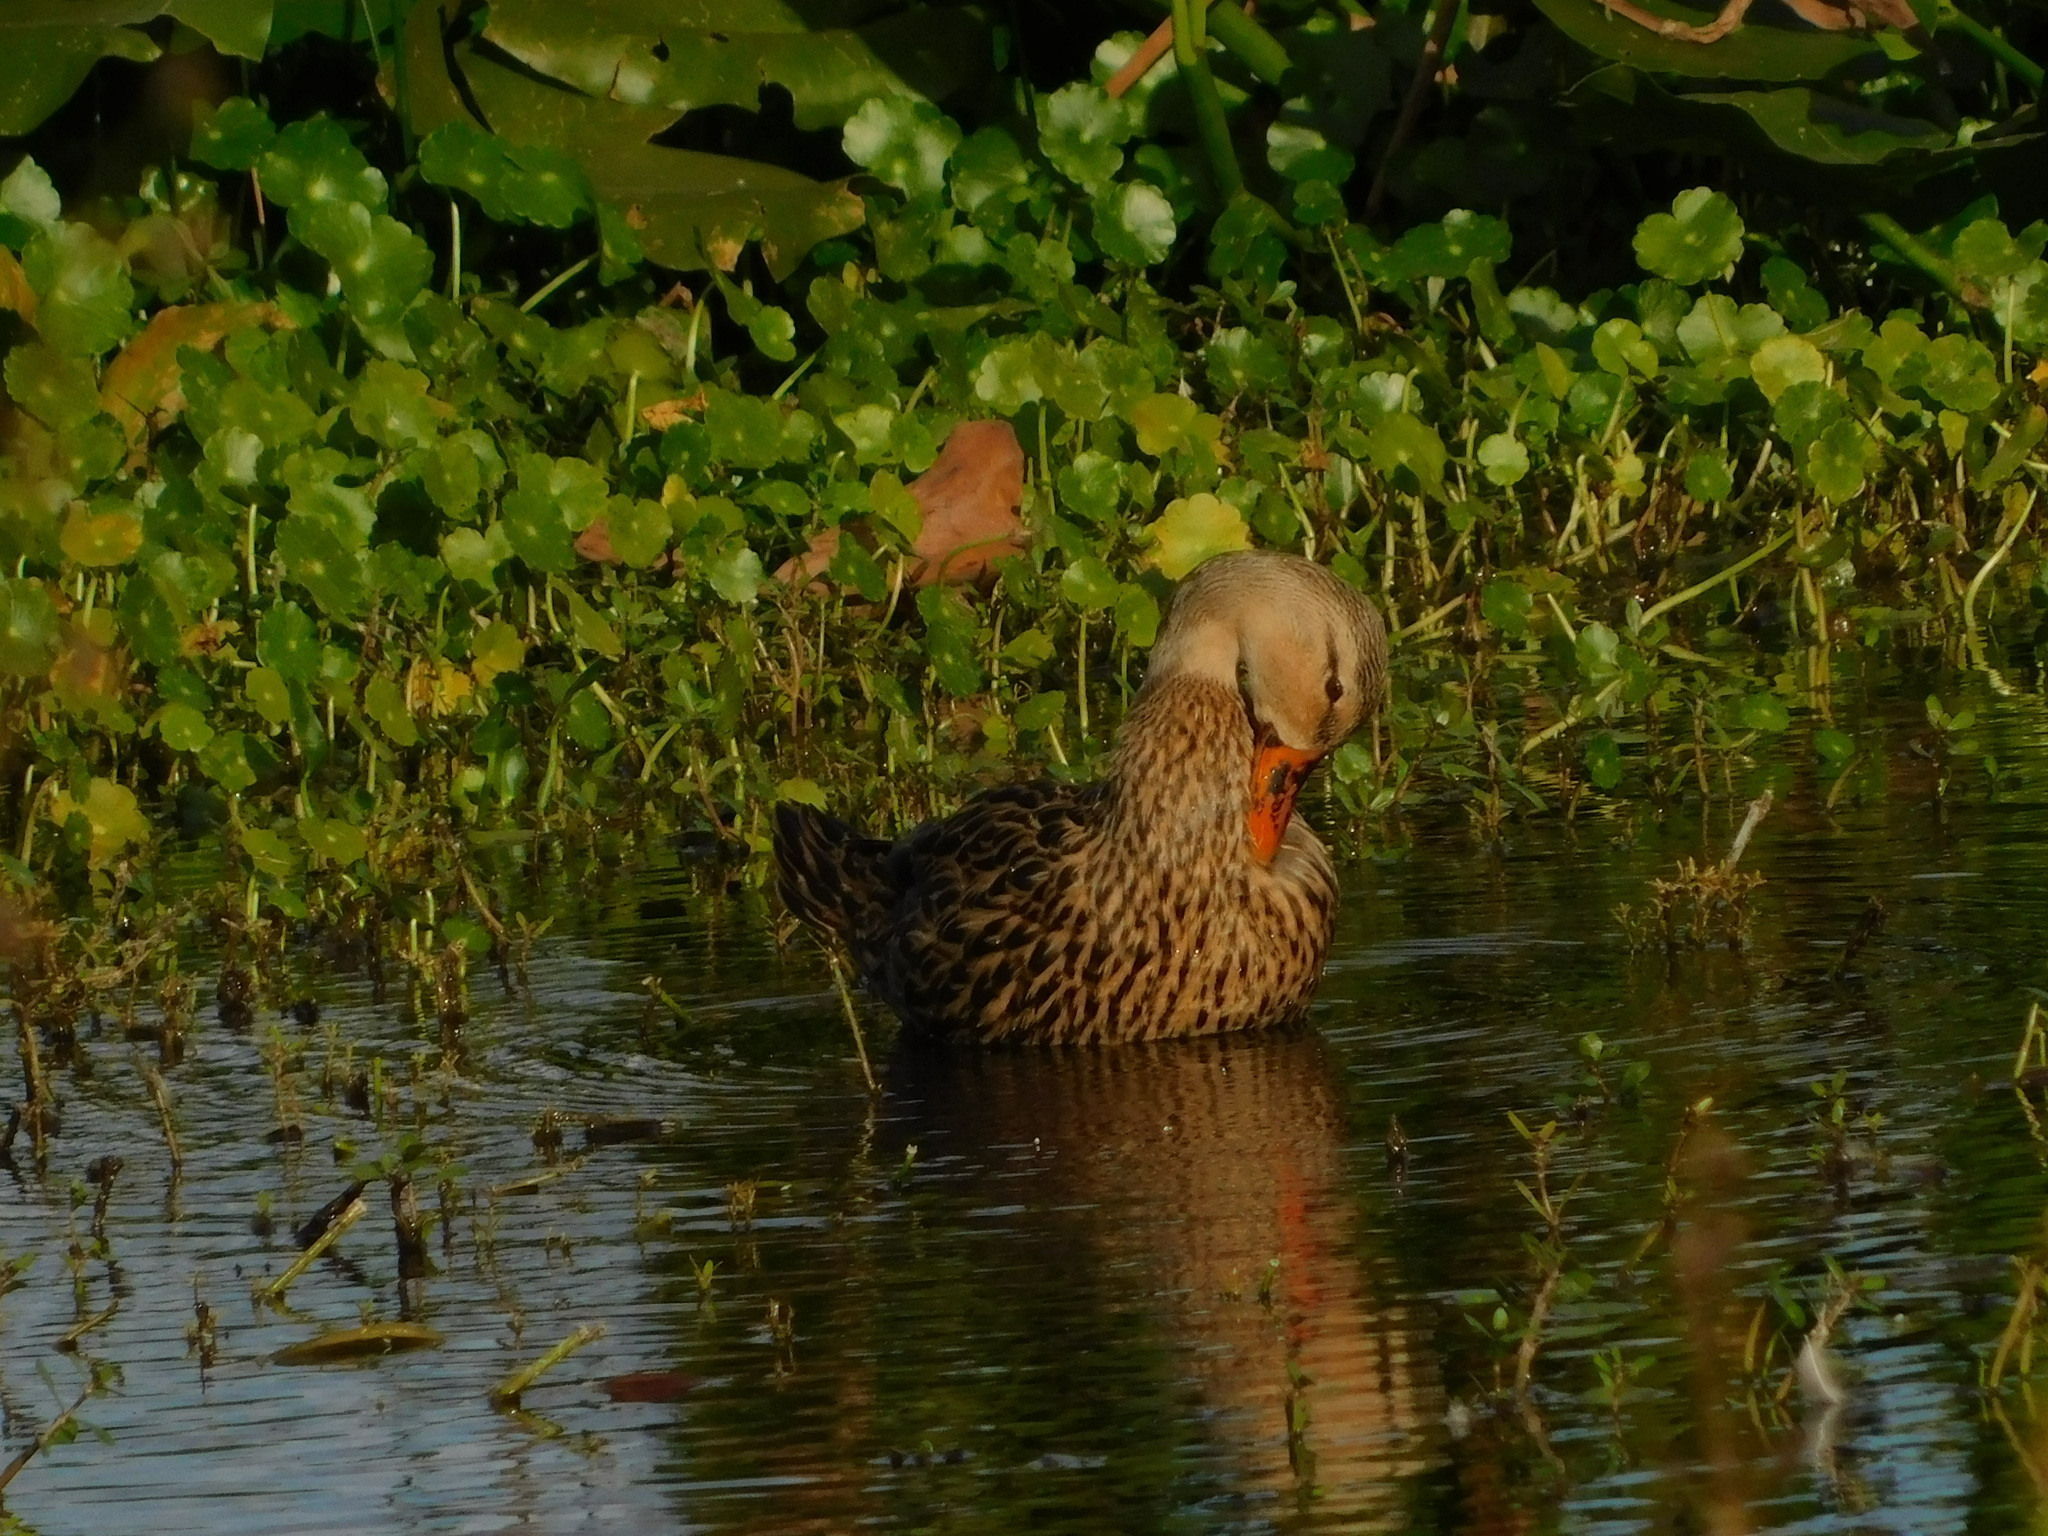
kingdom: Animalia
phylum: Chordata
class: Aves
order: Anseriformes
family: Anatidae
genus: Anas
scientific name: Anas fulvigula
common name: Mottled duck
